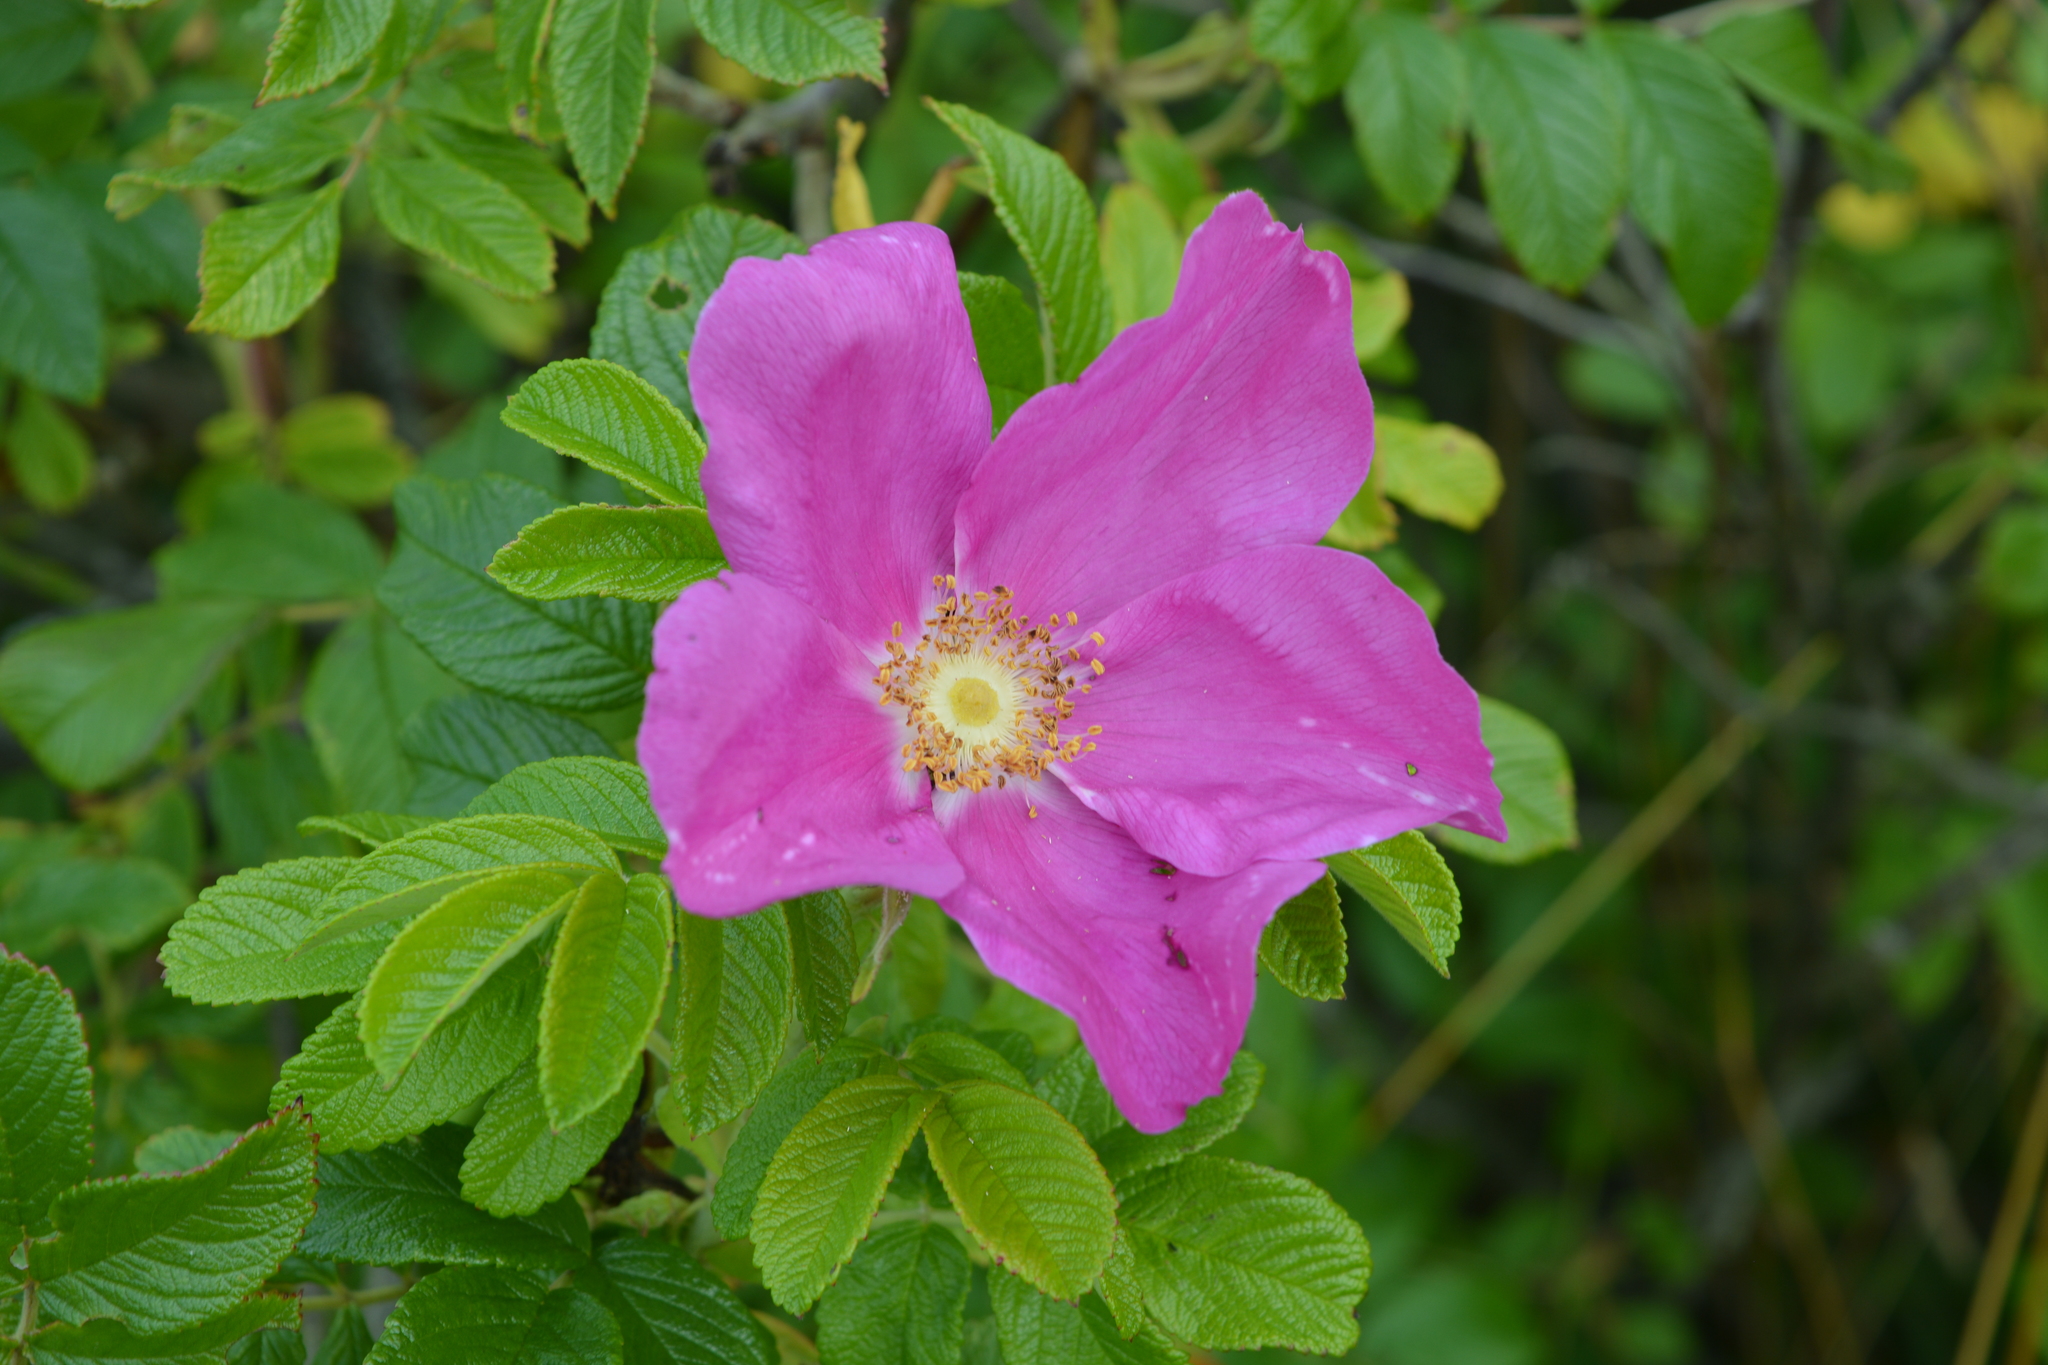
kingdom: Plantae
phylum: Tracheophyta
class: Magnoliopsida
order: Rosales
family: Rosaceae
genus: Rosa
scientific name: Rosa rugosa
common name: Japanese rose
